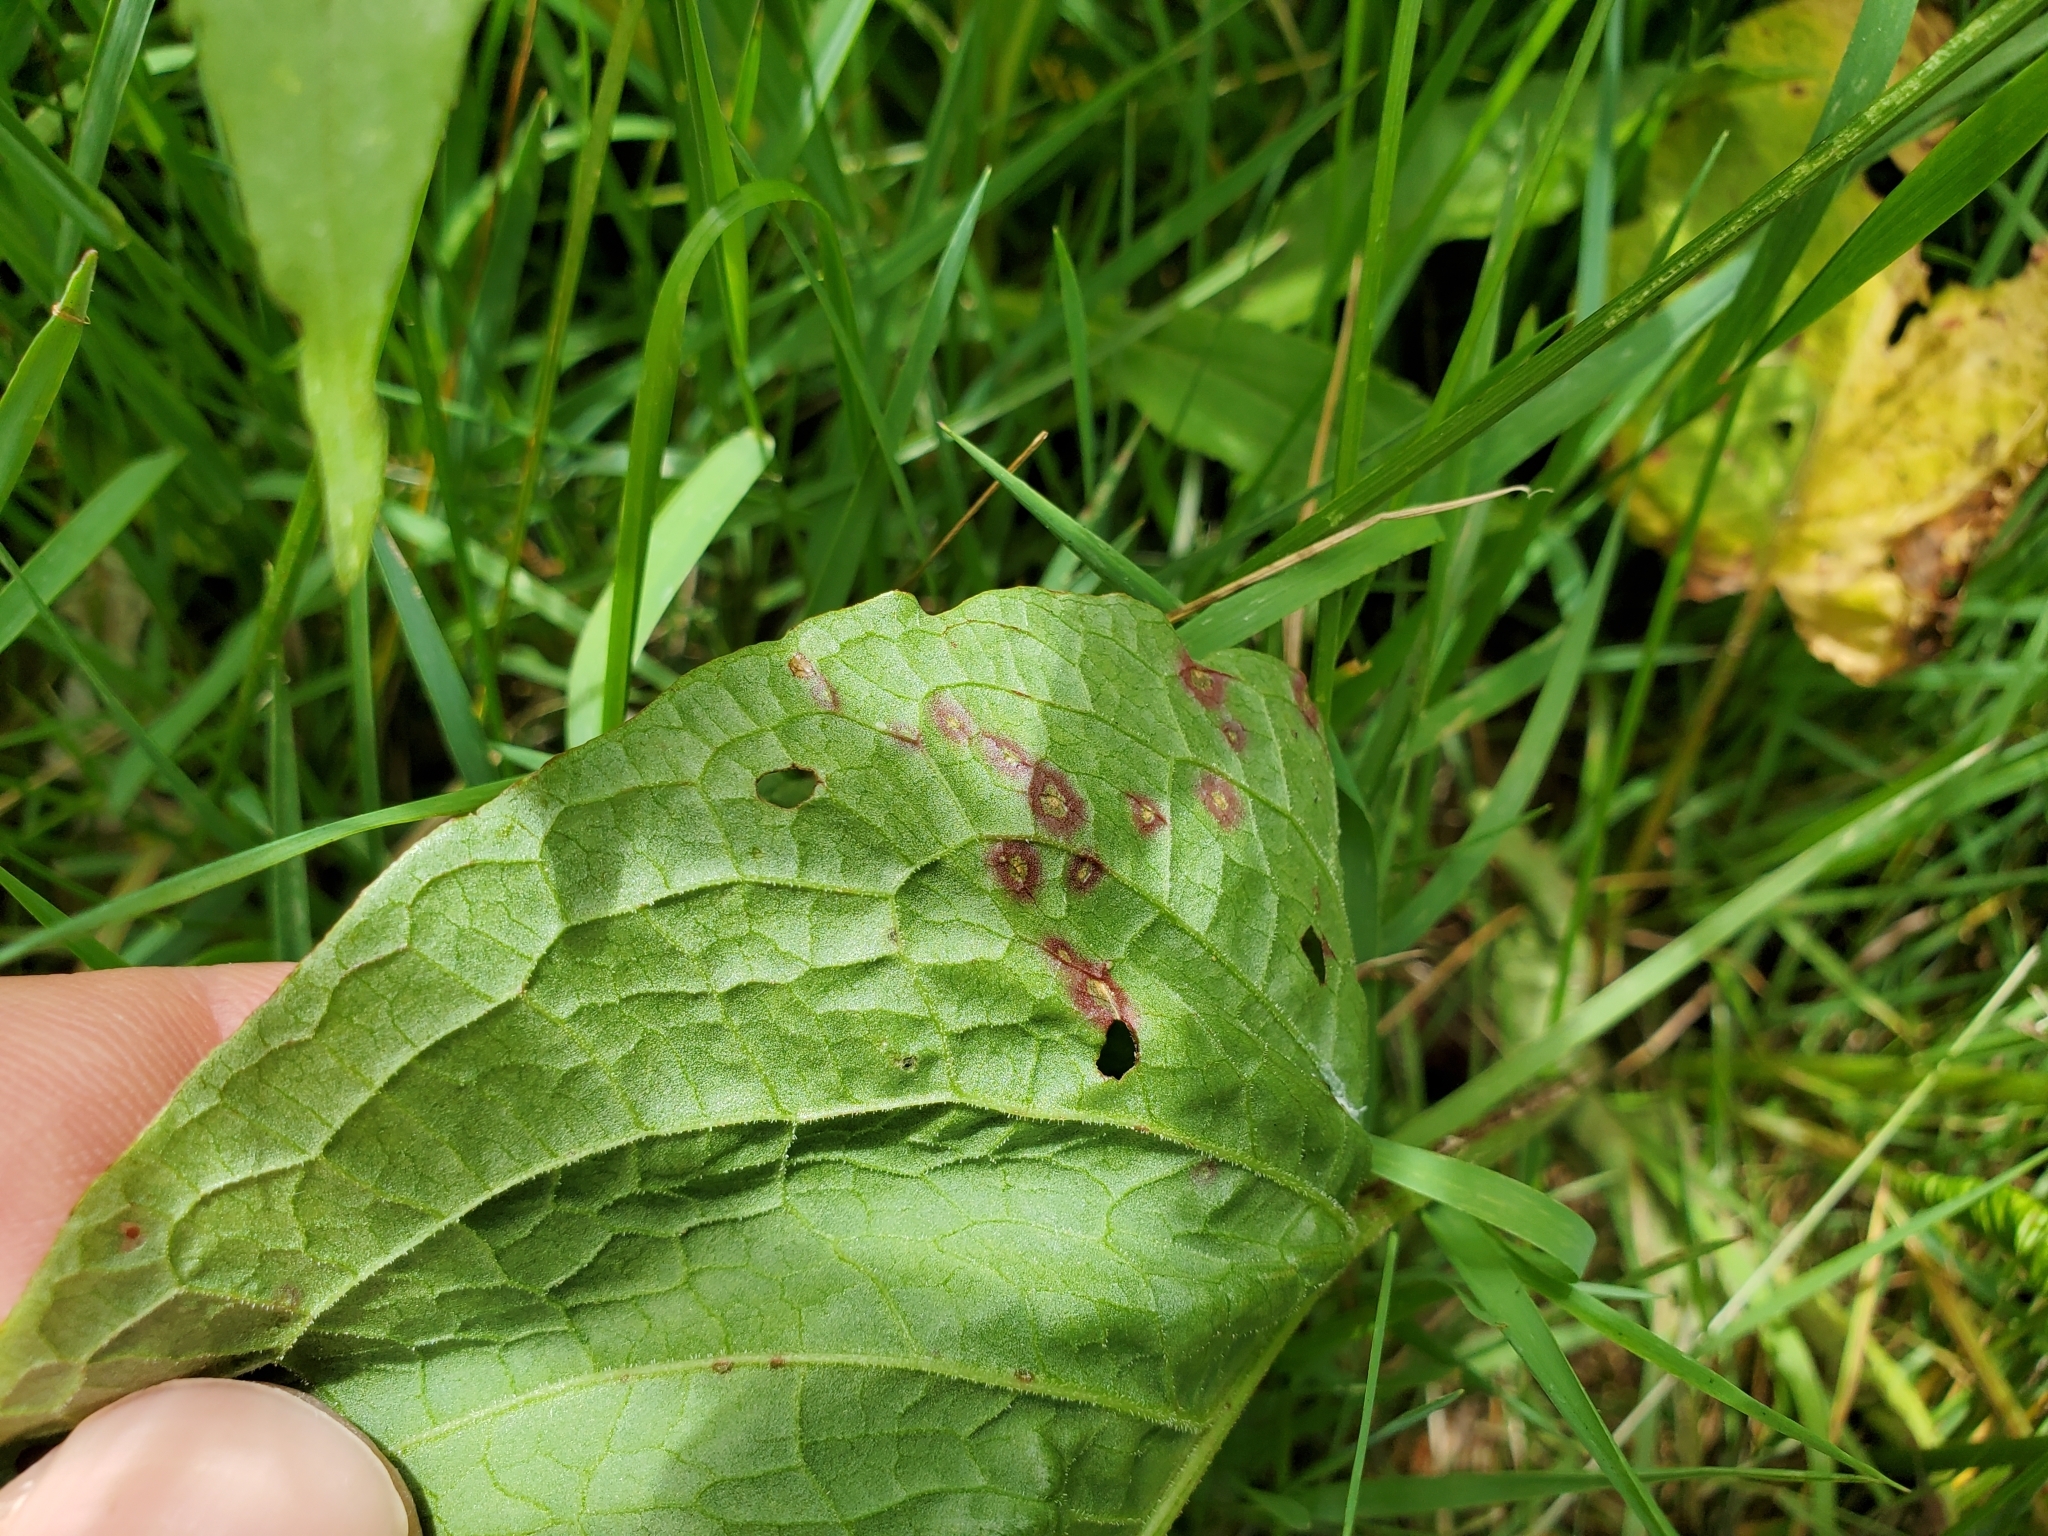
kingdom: Fungi
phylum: Ascomycota
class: Dothideomycetes
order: Mycosphaerellales
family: Mycosphaerellaceae
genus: Ramularia
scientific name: Ramularia rubella
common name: Red dock spot
